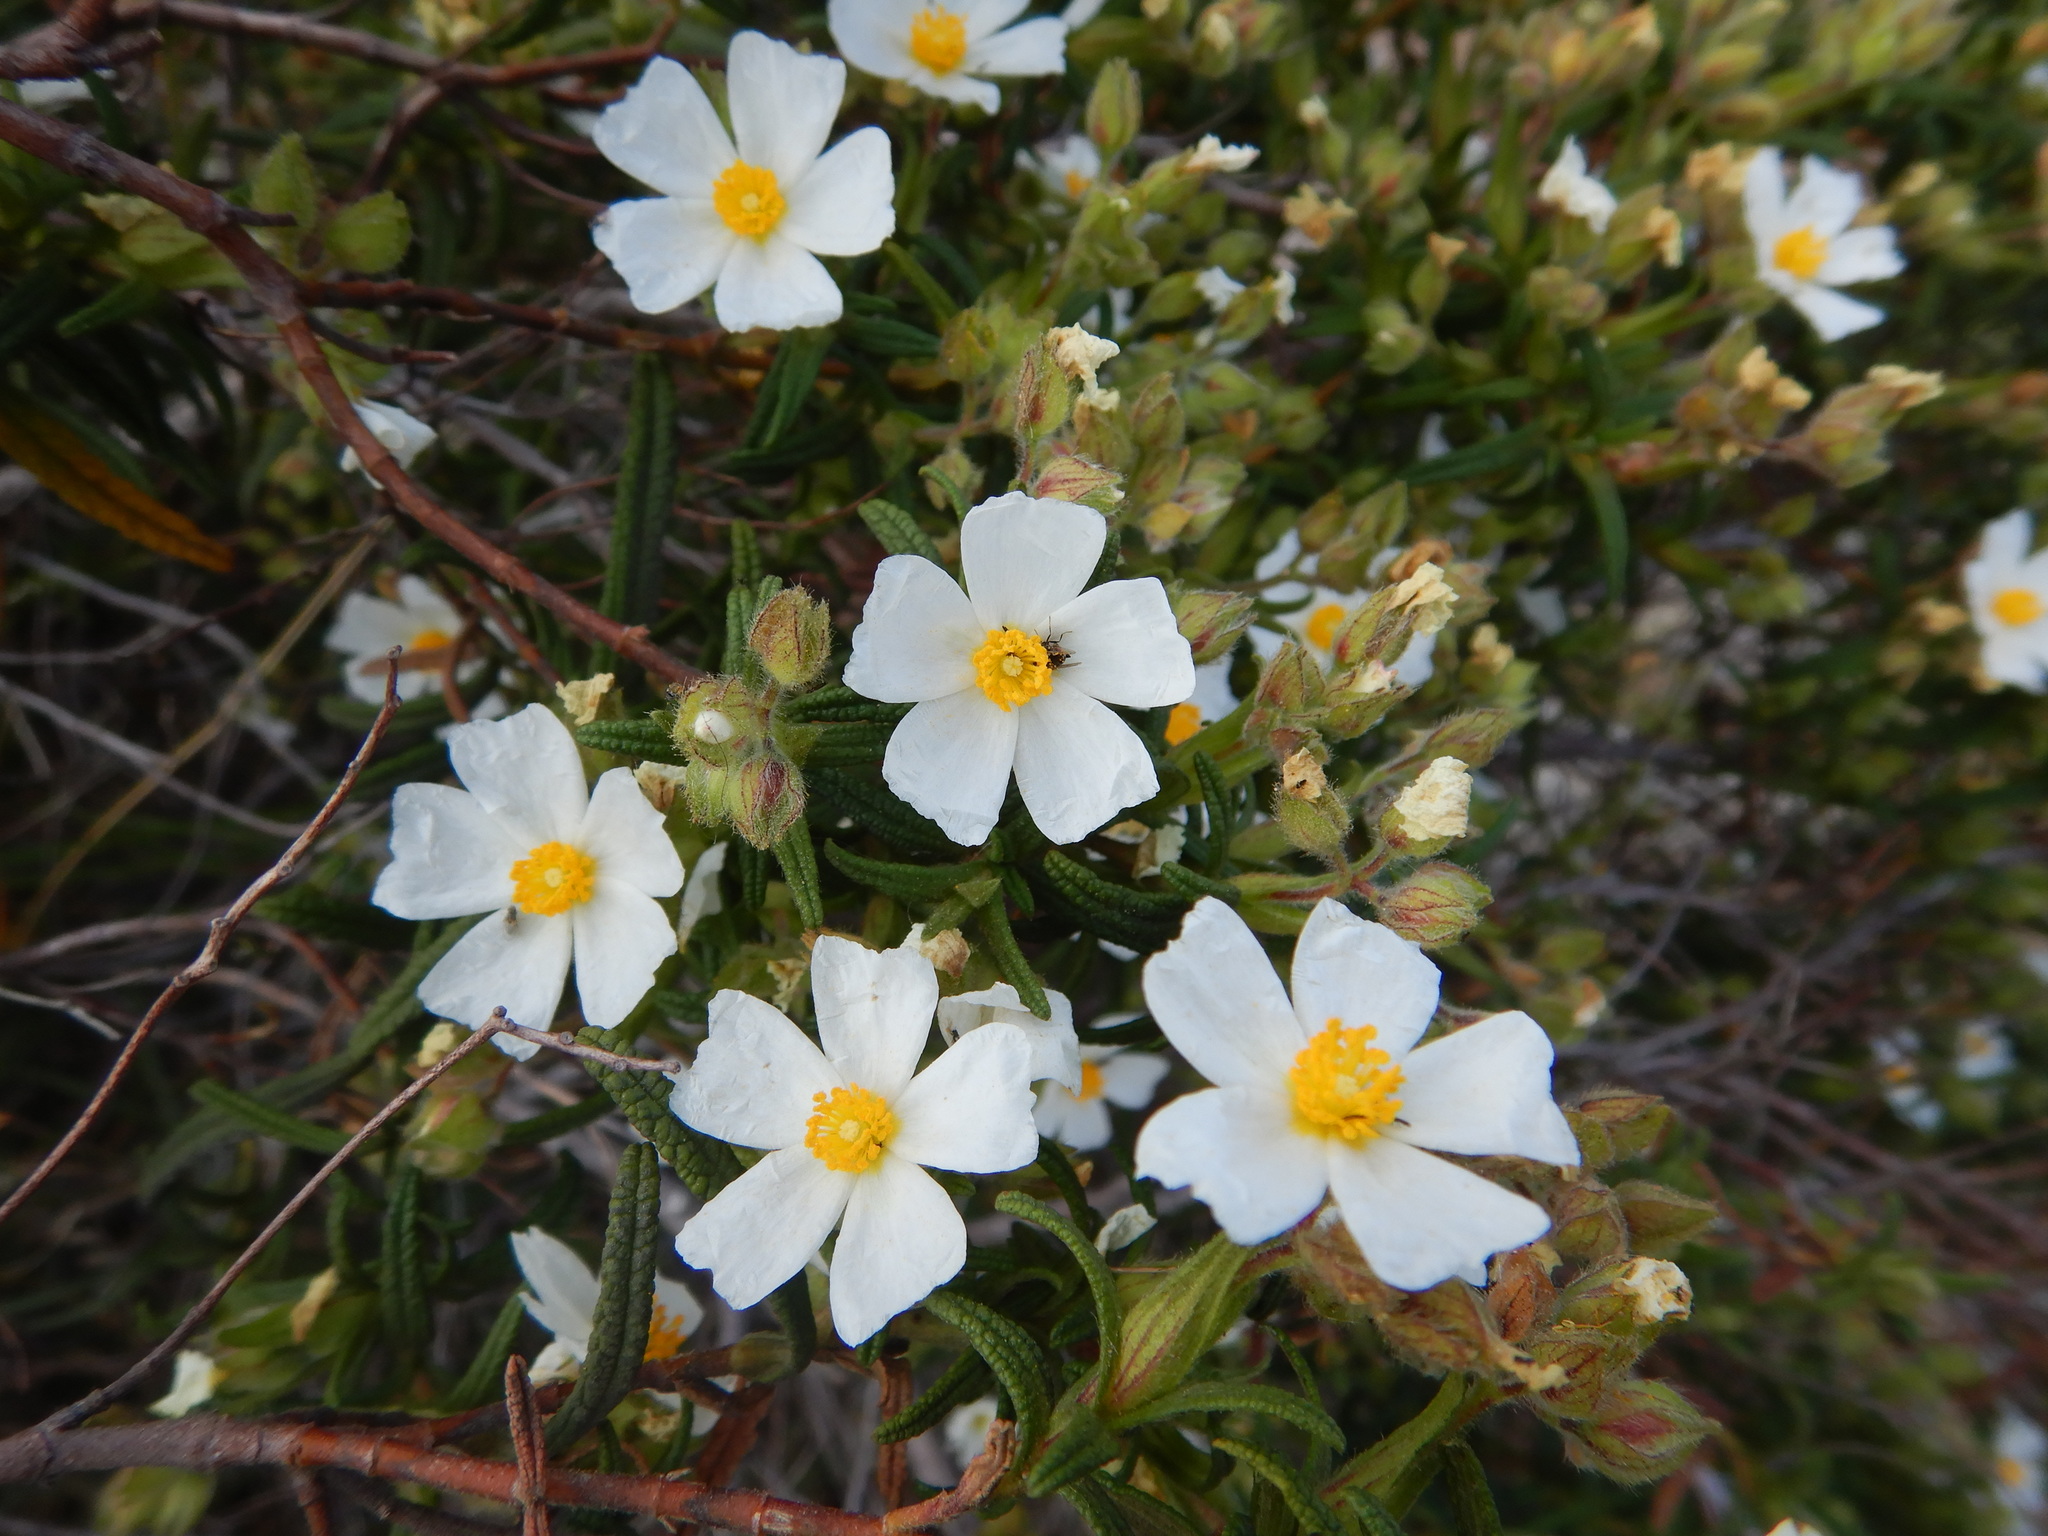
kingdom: Plantae
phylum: Tracheophyta
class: Magnoliopsida
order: Malvales
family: Cistaceae
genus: Cistus
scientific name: Cistus monspeliensis
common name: Montpelier cistus
